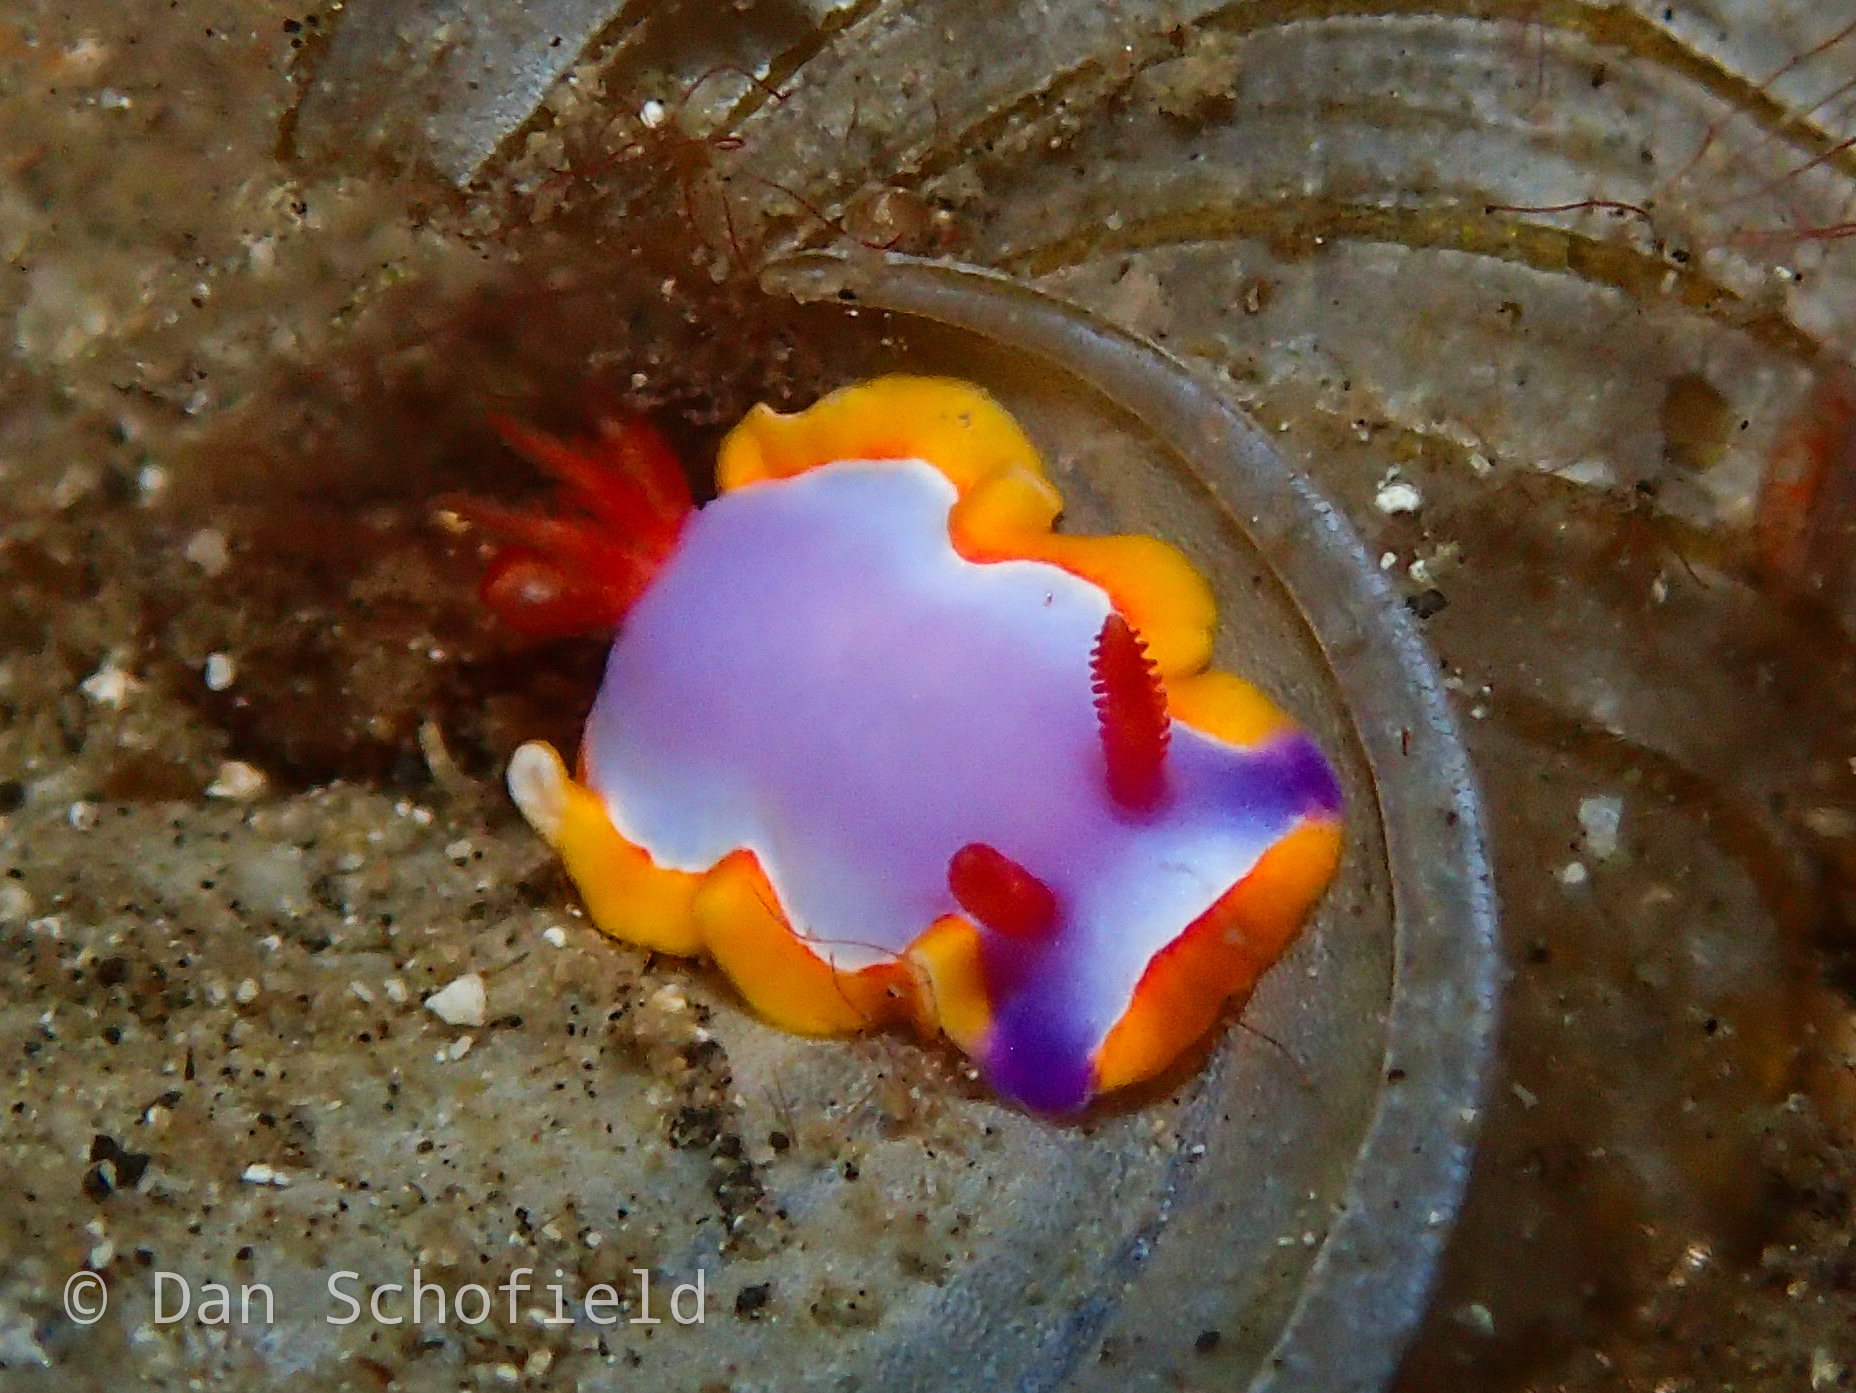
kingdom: Animalia
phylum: Mollusca
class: Gastropoda
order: Nudibranchia
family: Chromodorididae
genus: Thorunna
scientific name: Thorunna purpuropedis
